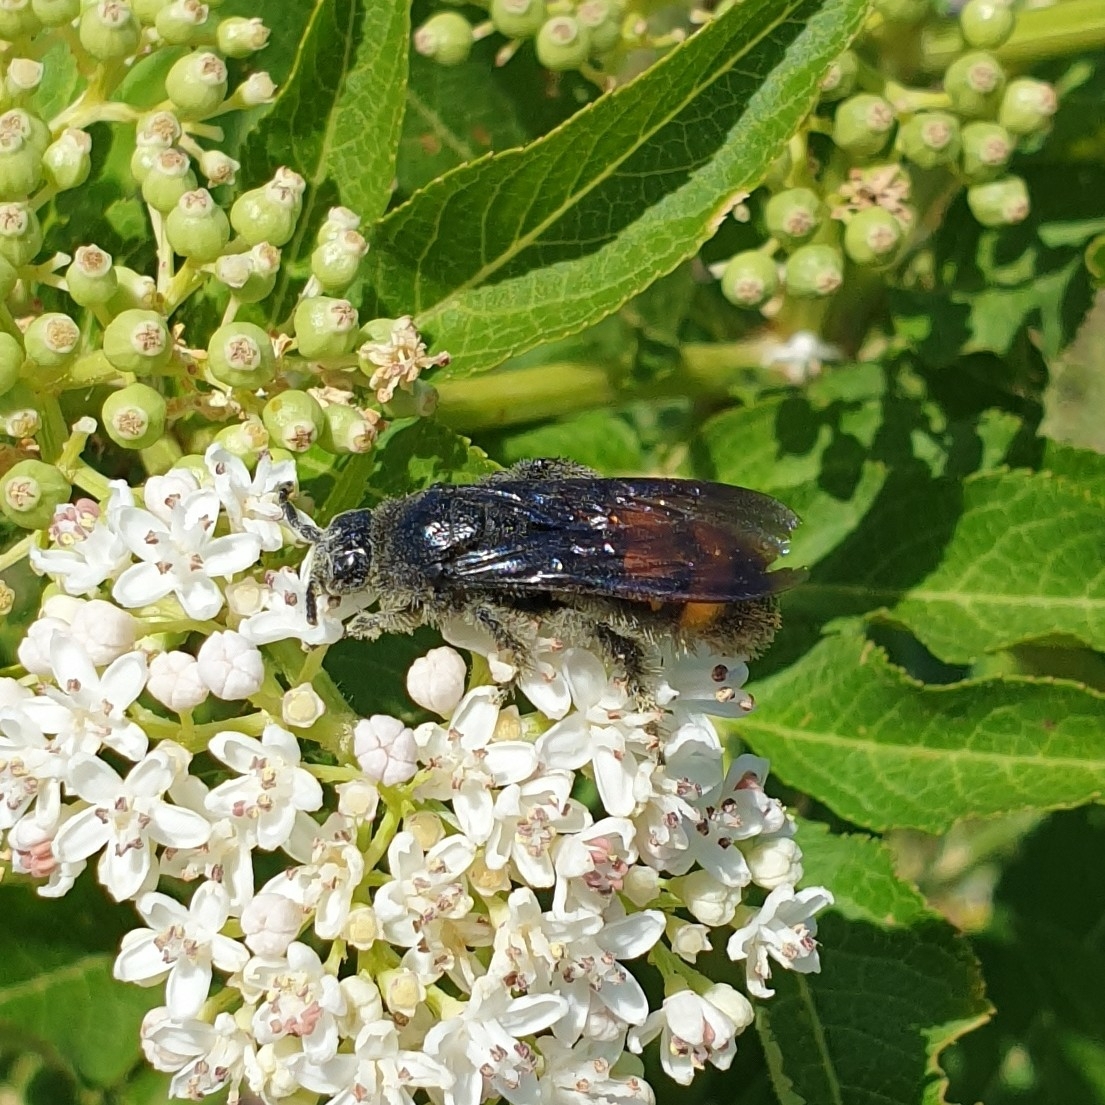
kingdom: Animalia
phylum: Arthropoda
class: Insecta
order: Hymenoptera
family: Scoliidae
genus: Scolia
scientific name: Scolia hirta
